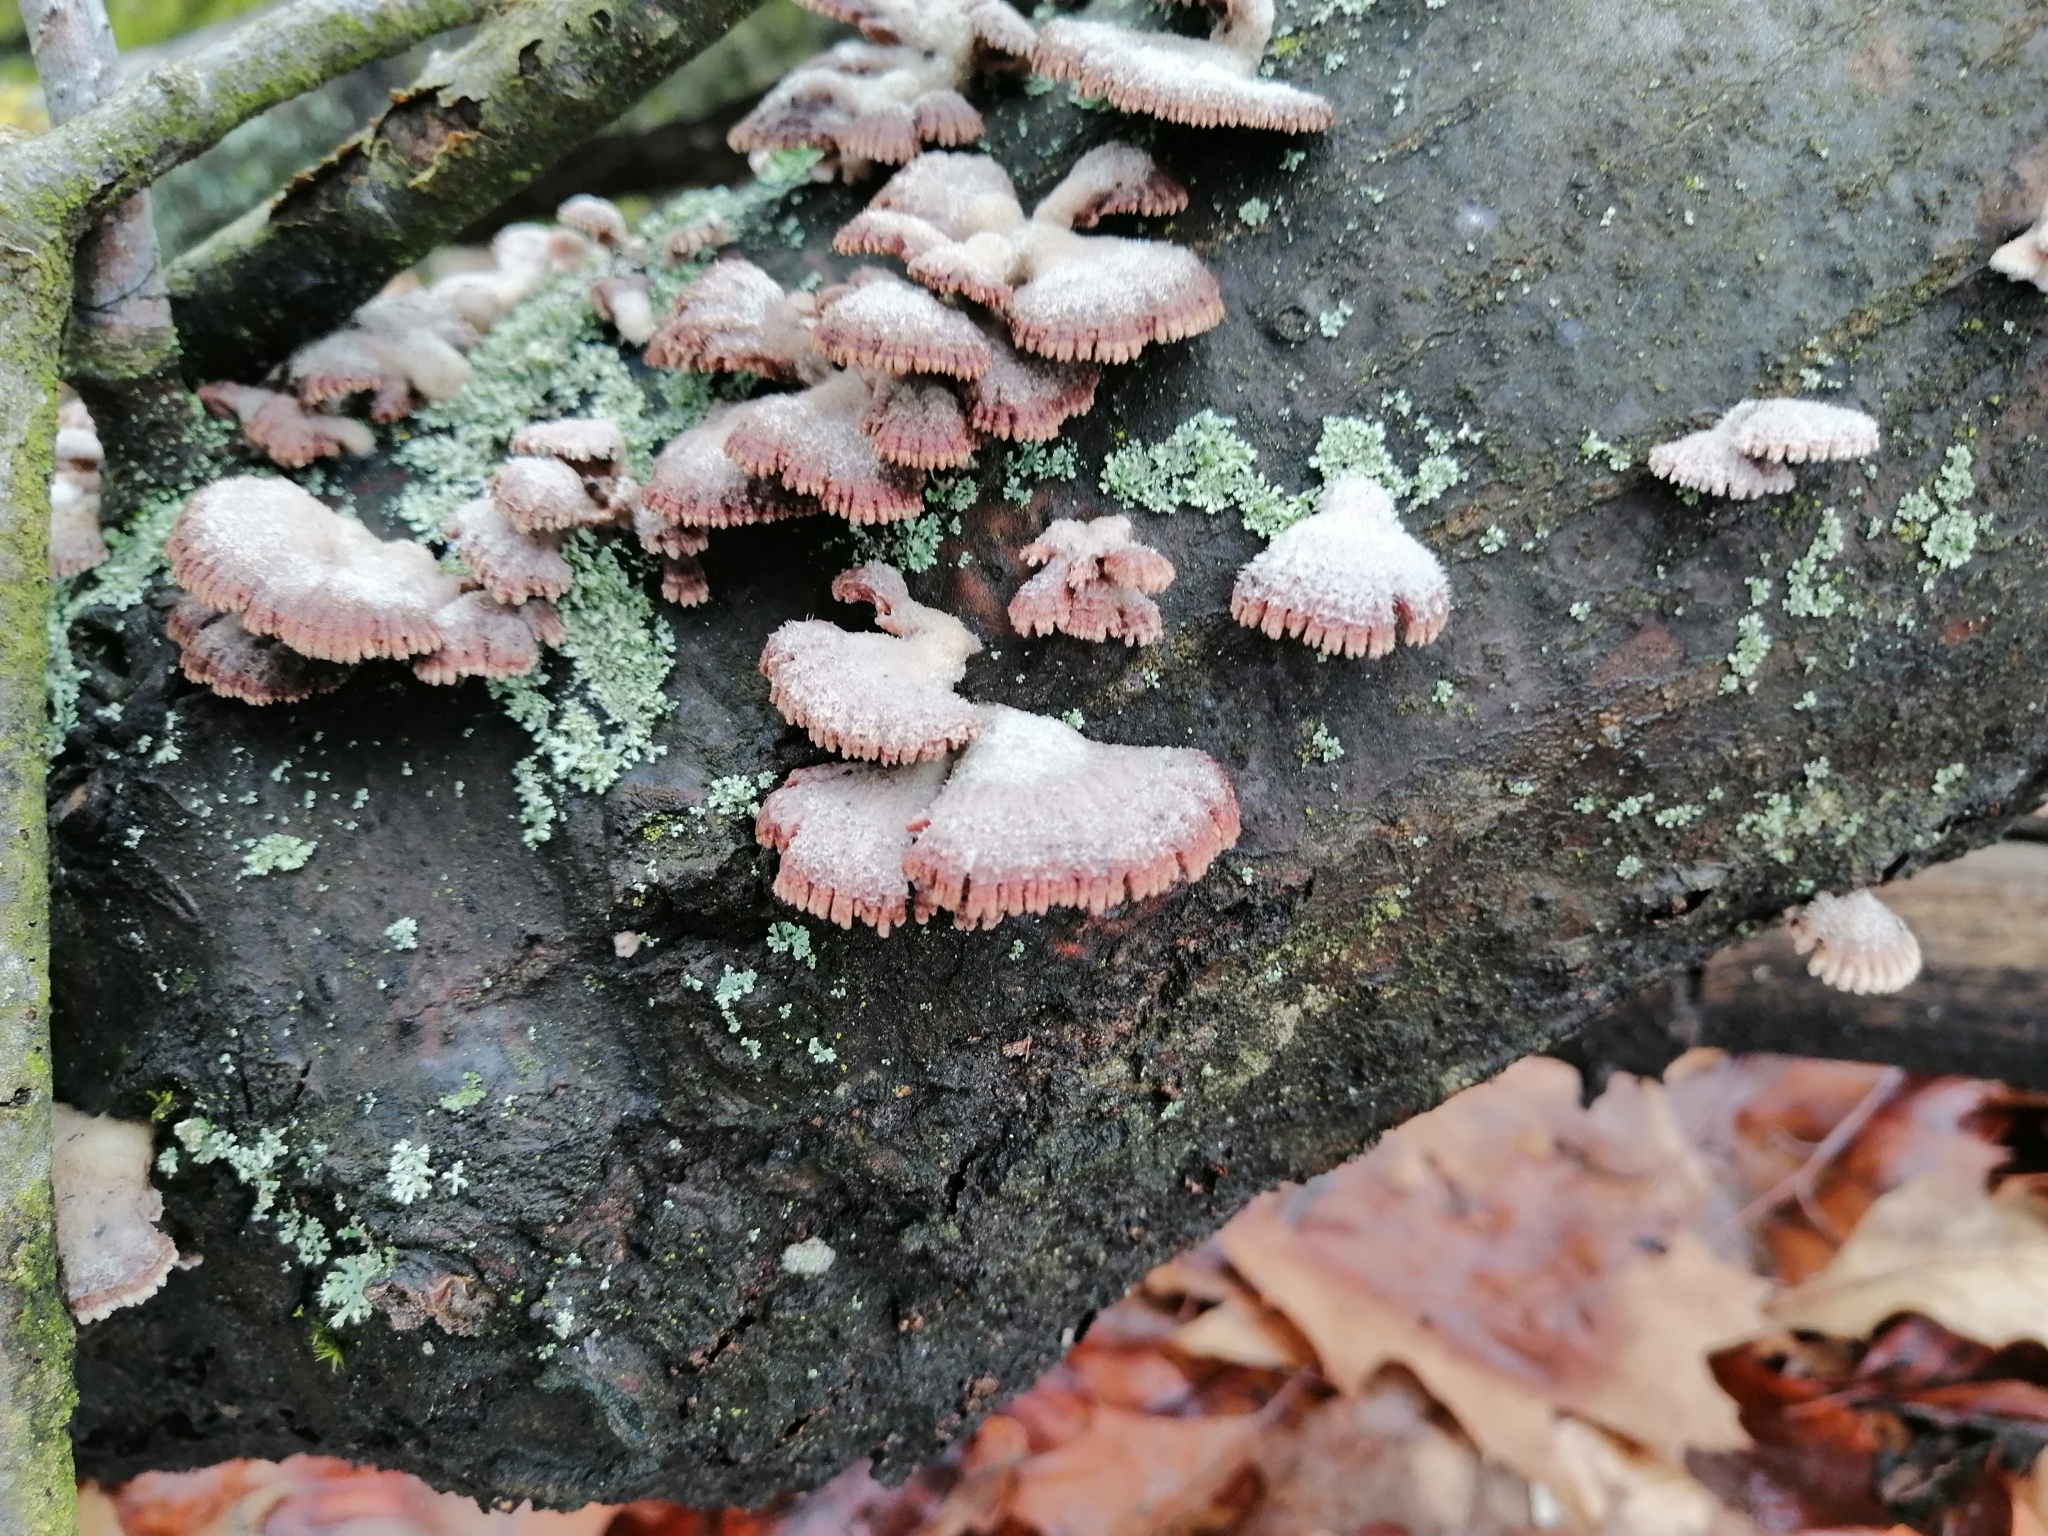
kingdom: Fungi
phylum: Basidiomycota
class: Agaricomycetes
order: Agaricales
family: Schizophyllaceae
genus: Schizophyllum
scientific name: Schizophyllum commune
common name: Common porecrust
